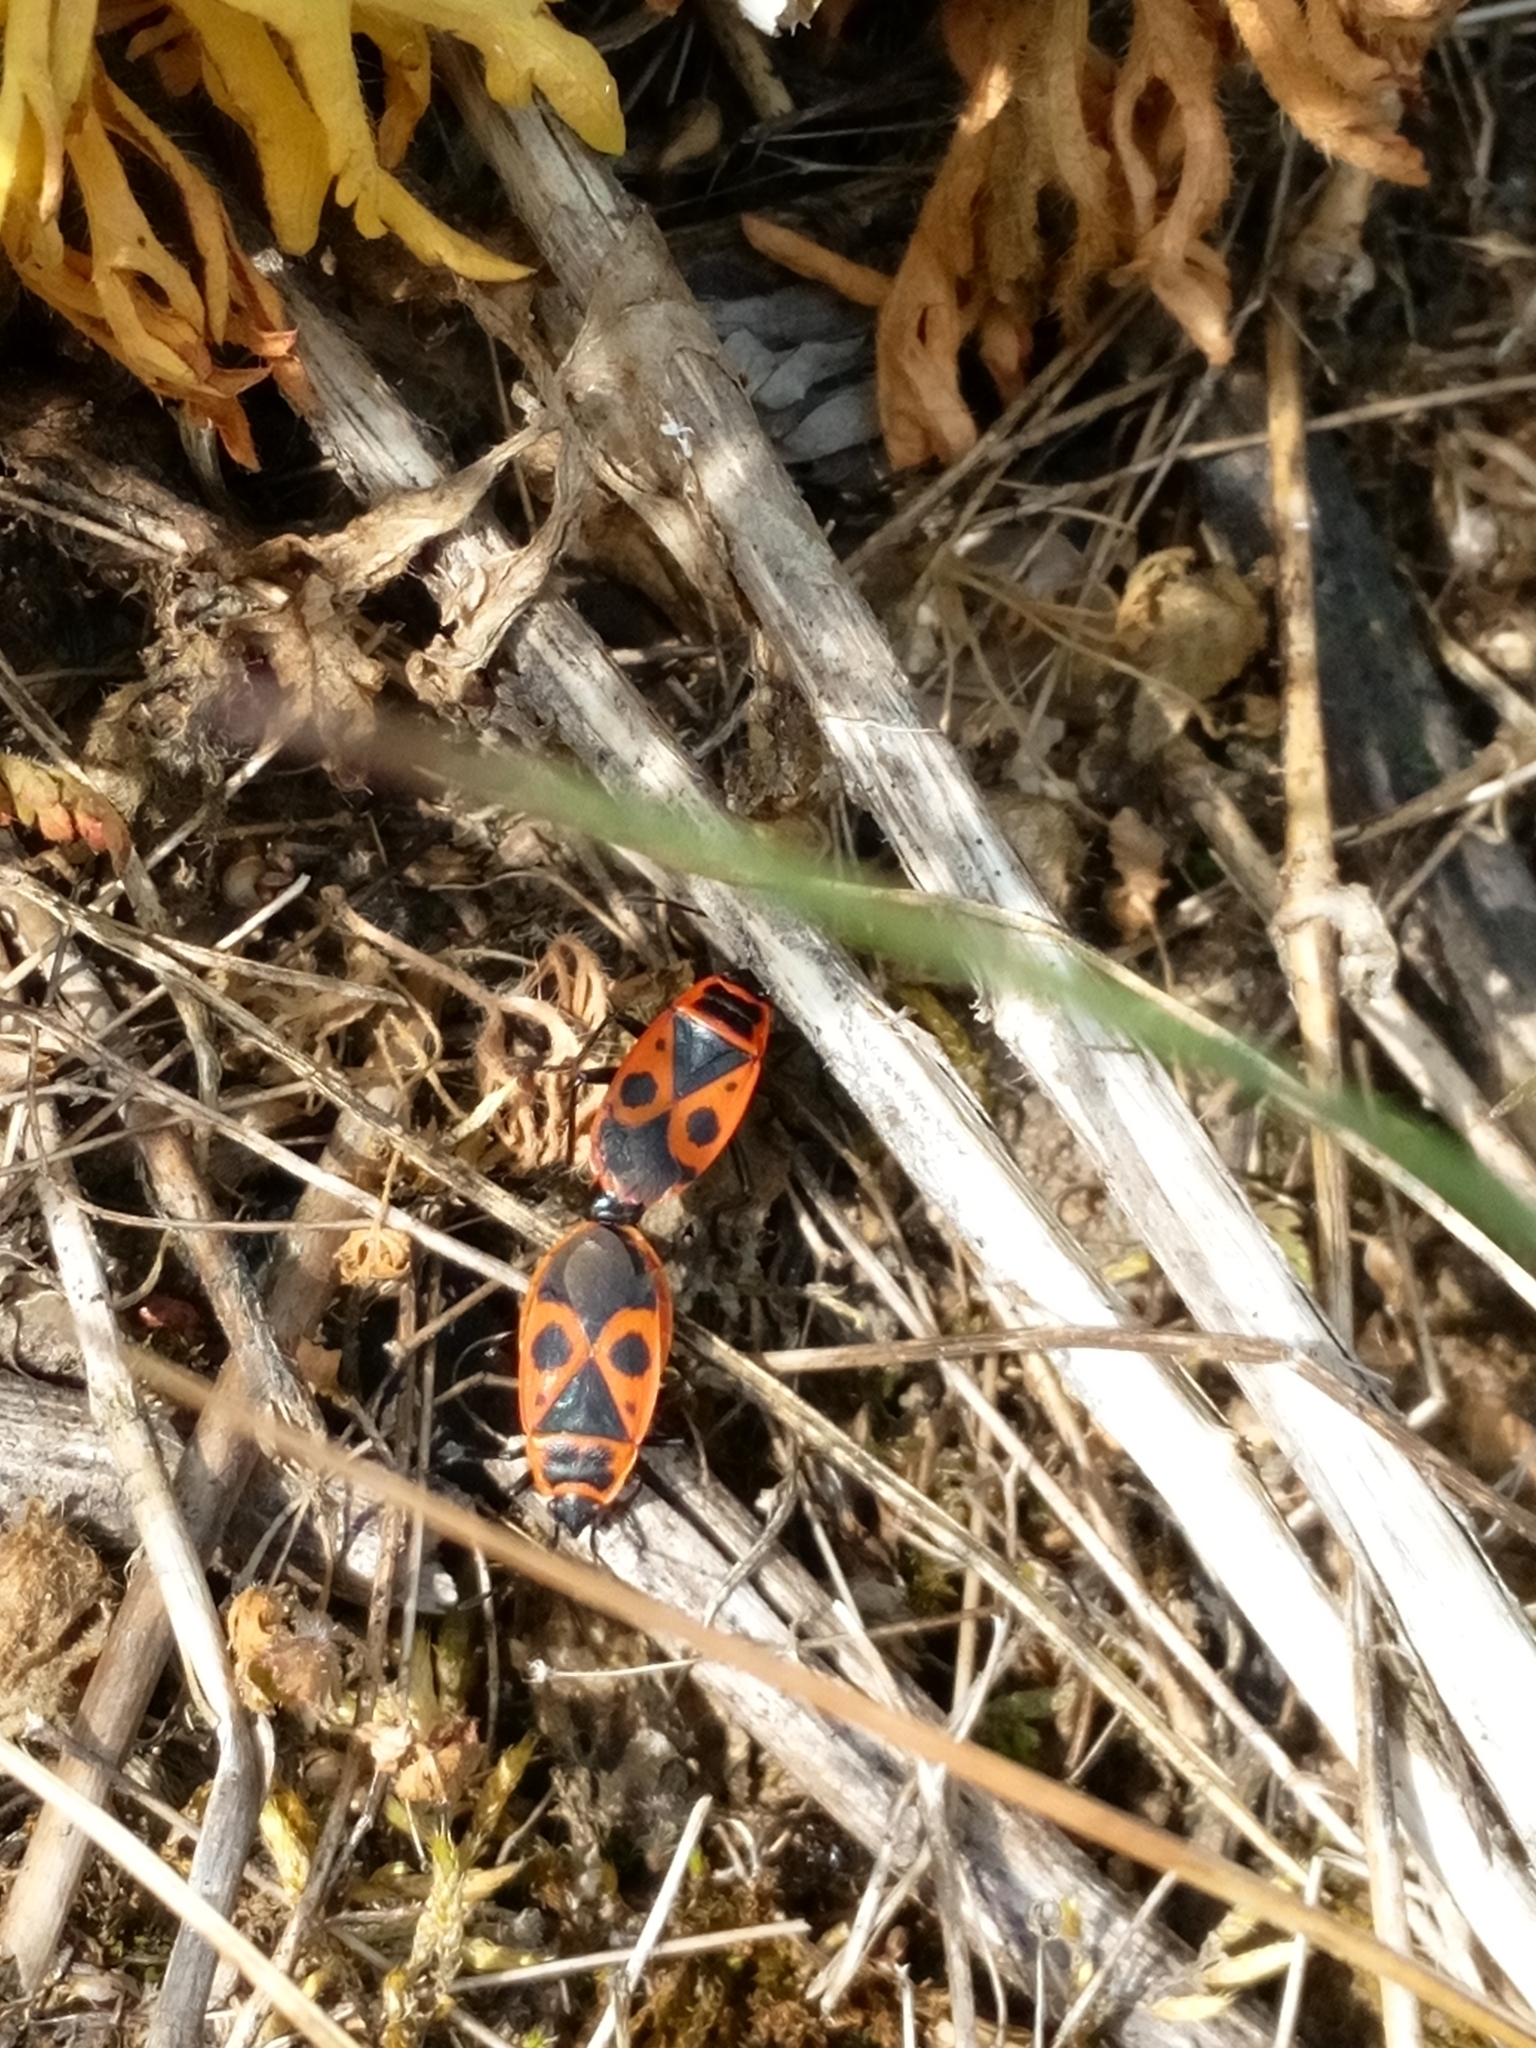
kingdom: Animalia
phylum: Arthropoda
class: Insecta
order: Hemiptera
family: Pyrrhocoridae
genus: Pyrrhocoris
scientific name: Pyrrhocoris apterus
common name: Firebug
